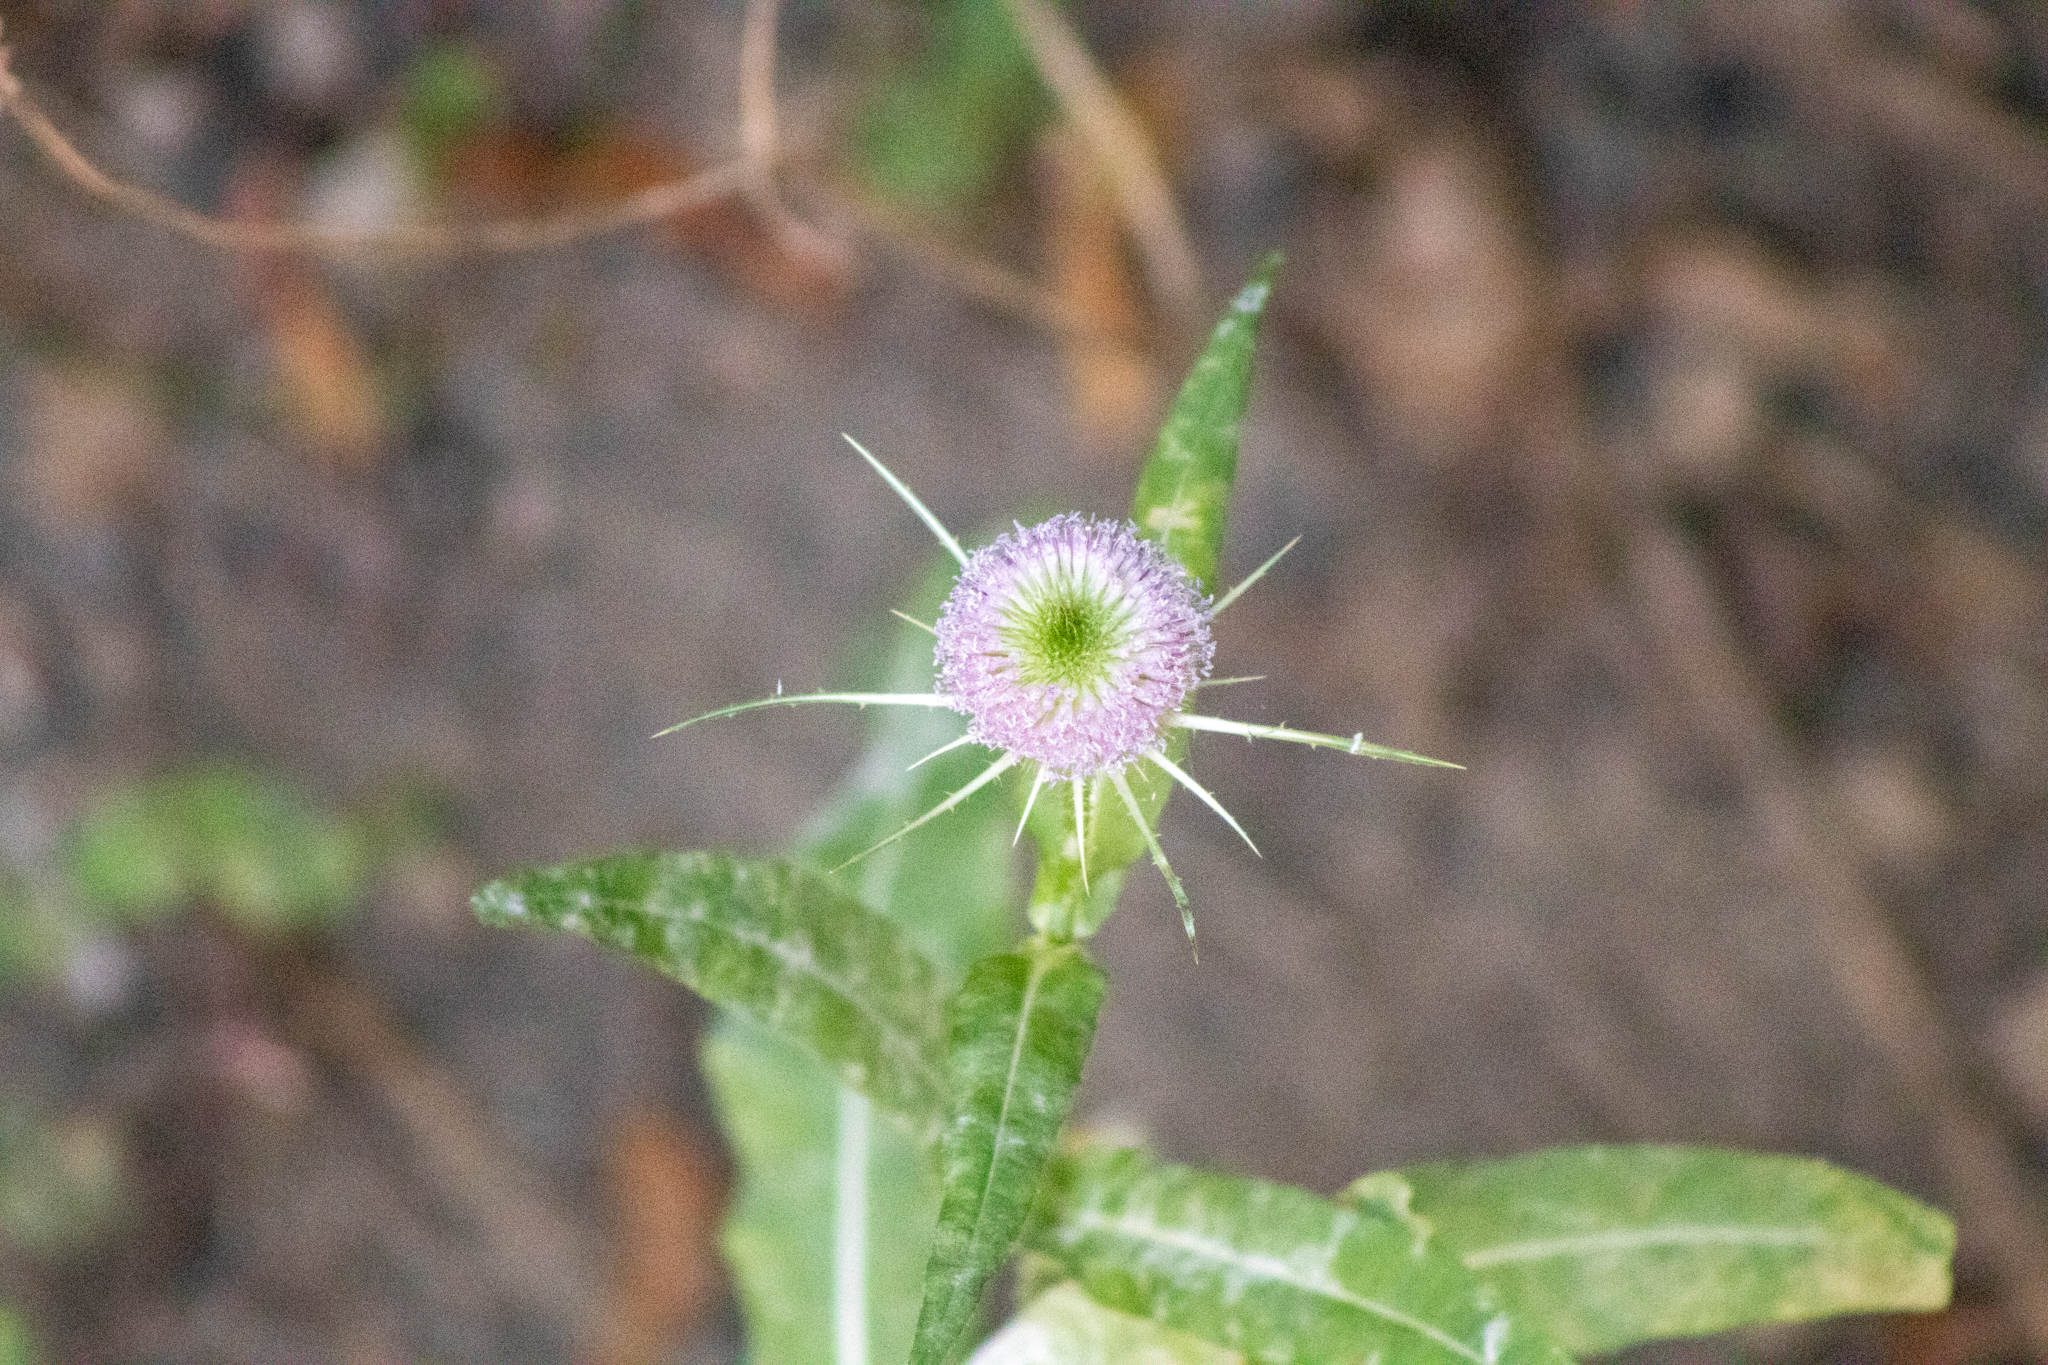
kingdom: Plantae
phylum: Tracheophyta
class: Magnoliopsida
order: Dipsacales
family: Caprifoliaceae
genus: Dipsacus
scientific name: Dipsacus fullonum
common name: Teasel
